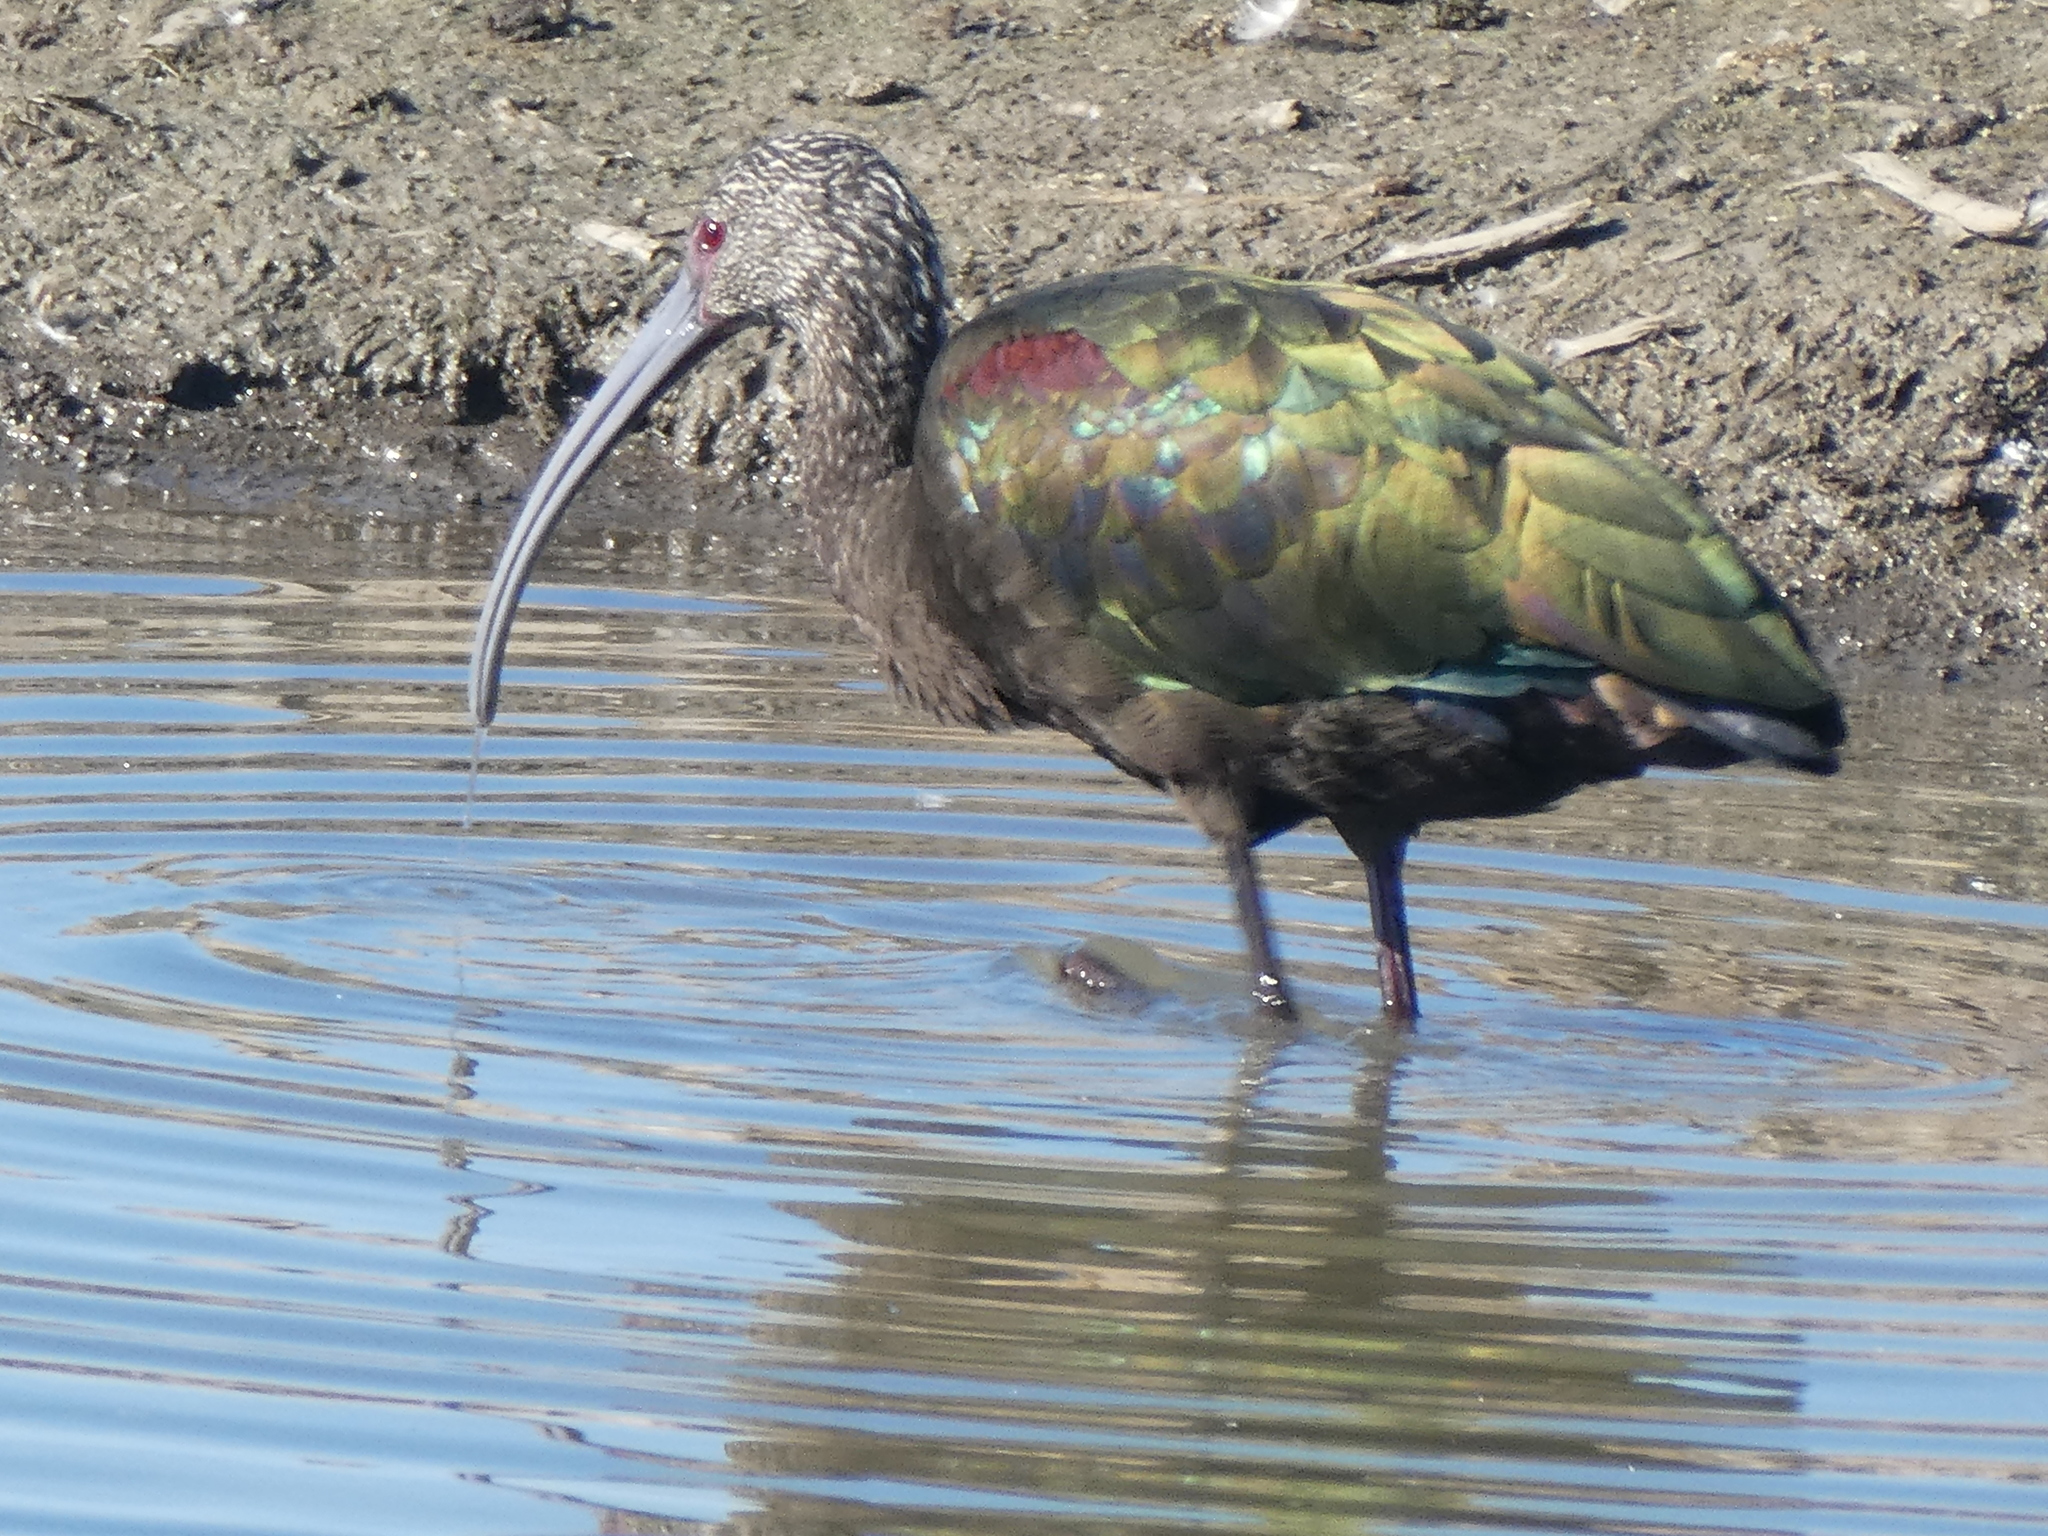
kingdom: Animalia
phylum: Chordata
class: Aves
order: Pelecaniformes
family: Threskiornithidae
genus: Plegadis
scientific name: Plegadis chihi
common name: White-faced ibis
